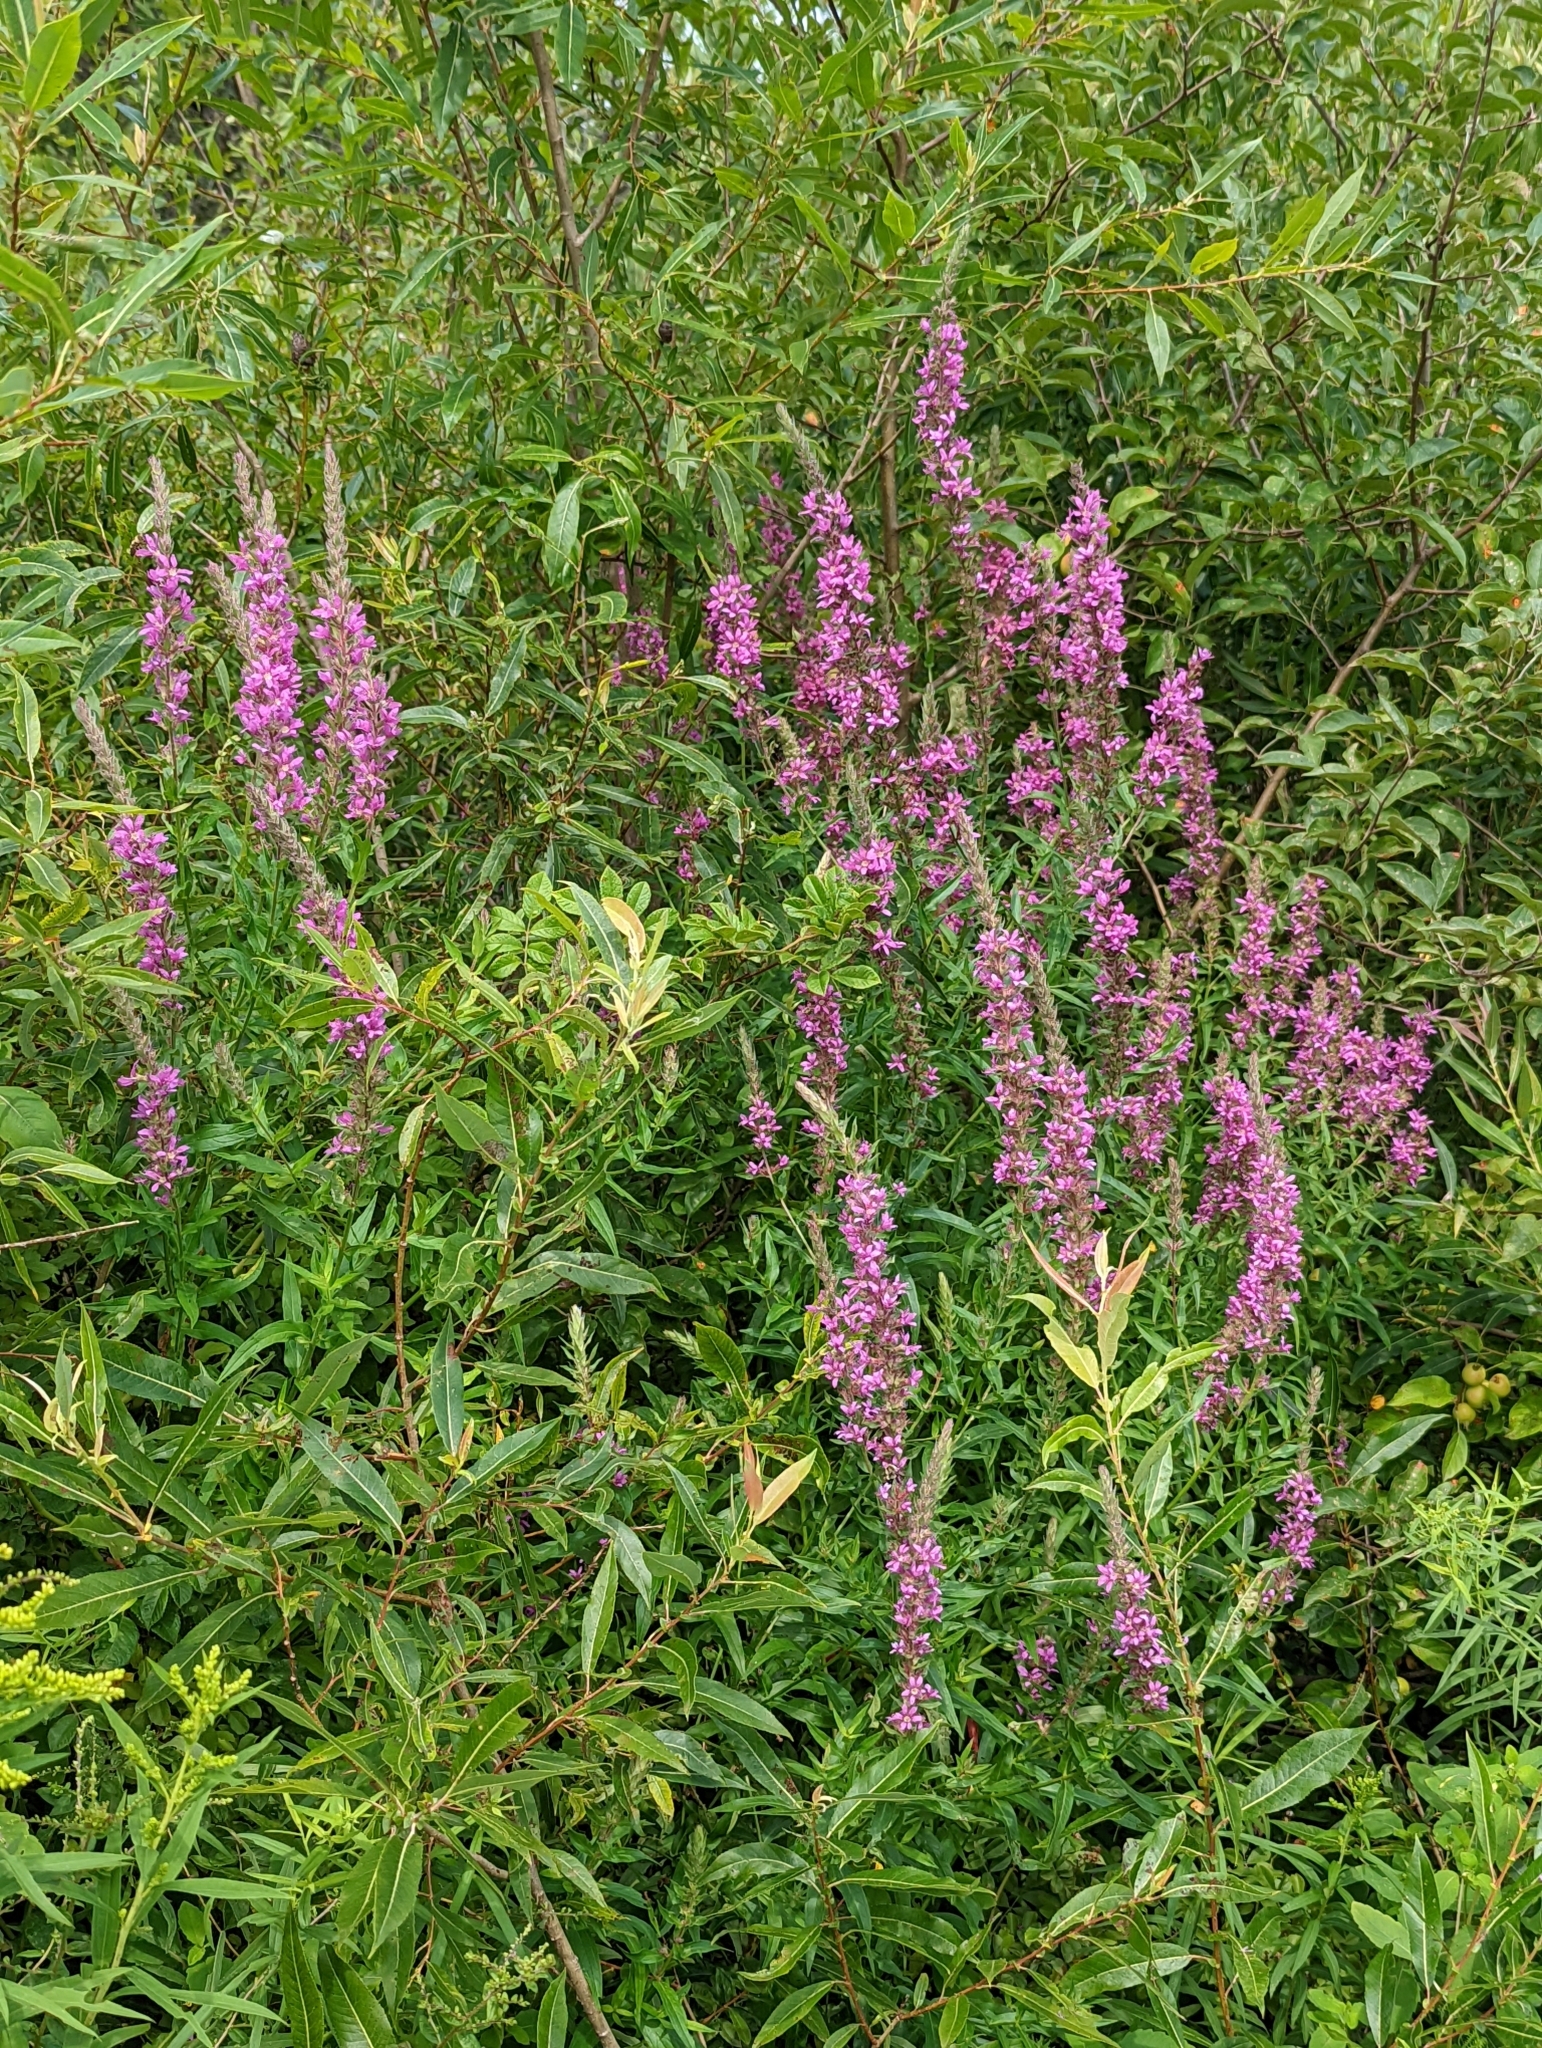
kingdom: Plantae
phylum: Tracheophyta
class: Magnoliopsida
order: Myrtales
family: Lythraceae
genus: Lythrum
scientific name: Lythrum salicaria
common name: Purple loosestrife
